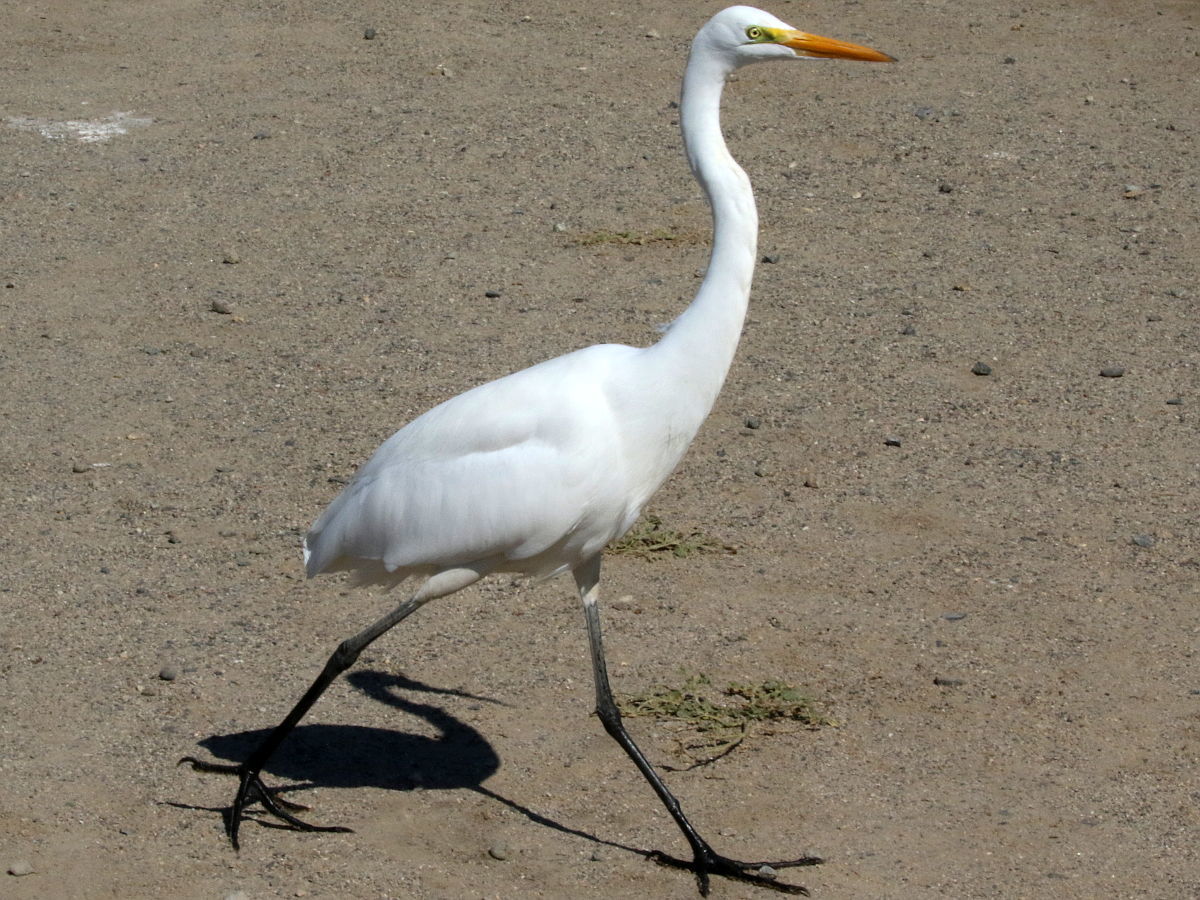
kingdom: Animalia
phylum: Chordata
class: Aves
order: Pelecaniformes
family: Ardeidae
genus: Ardea
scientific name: Ardea alba
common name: Great egret
